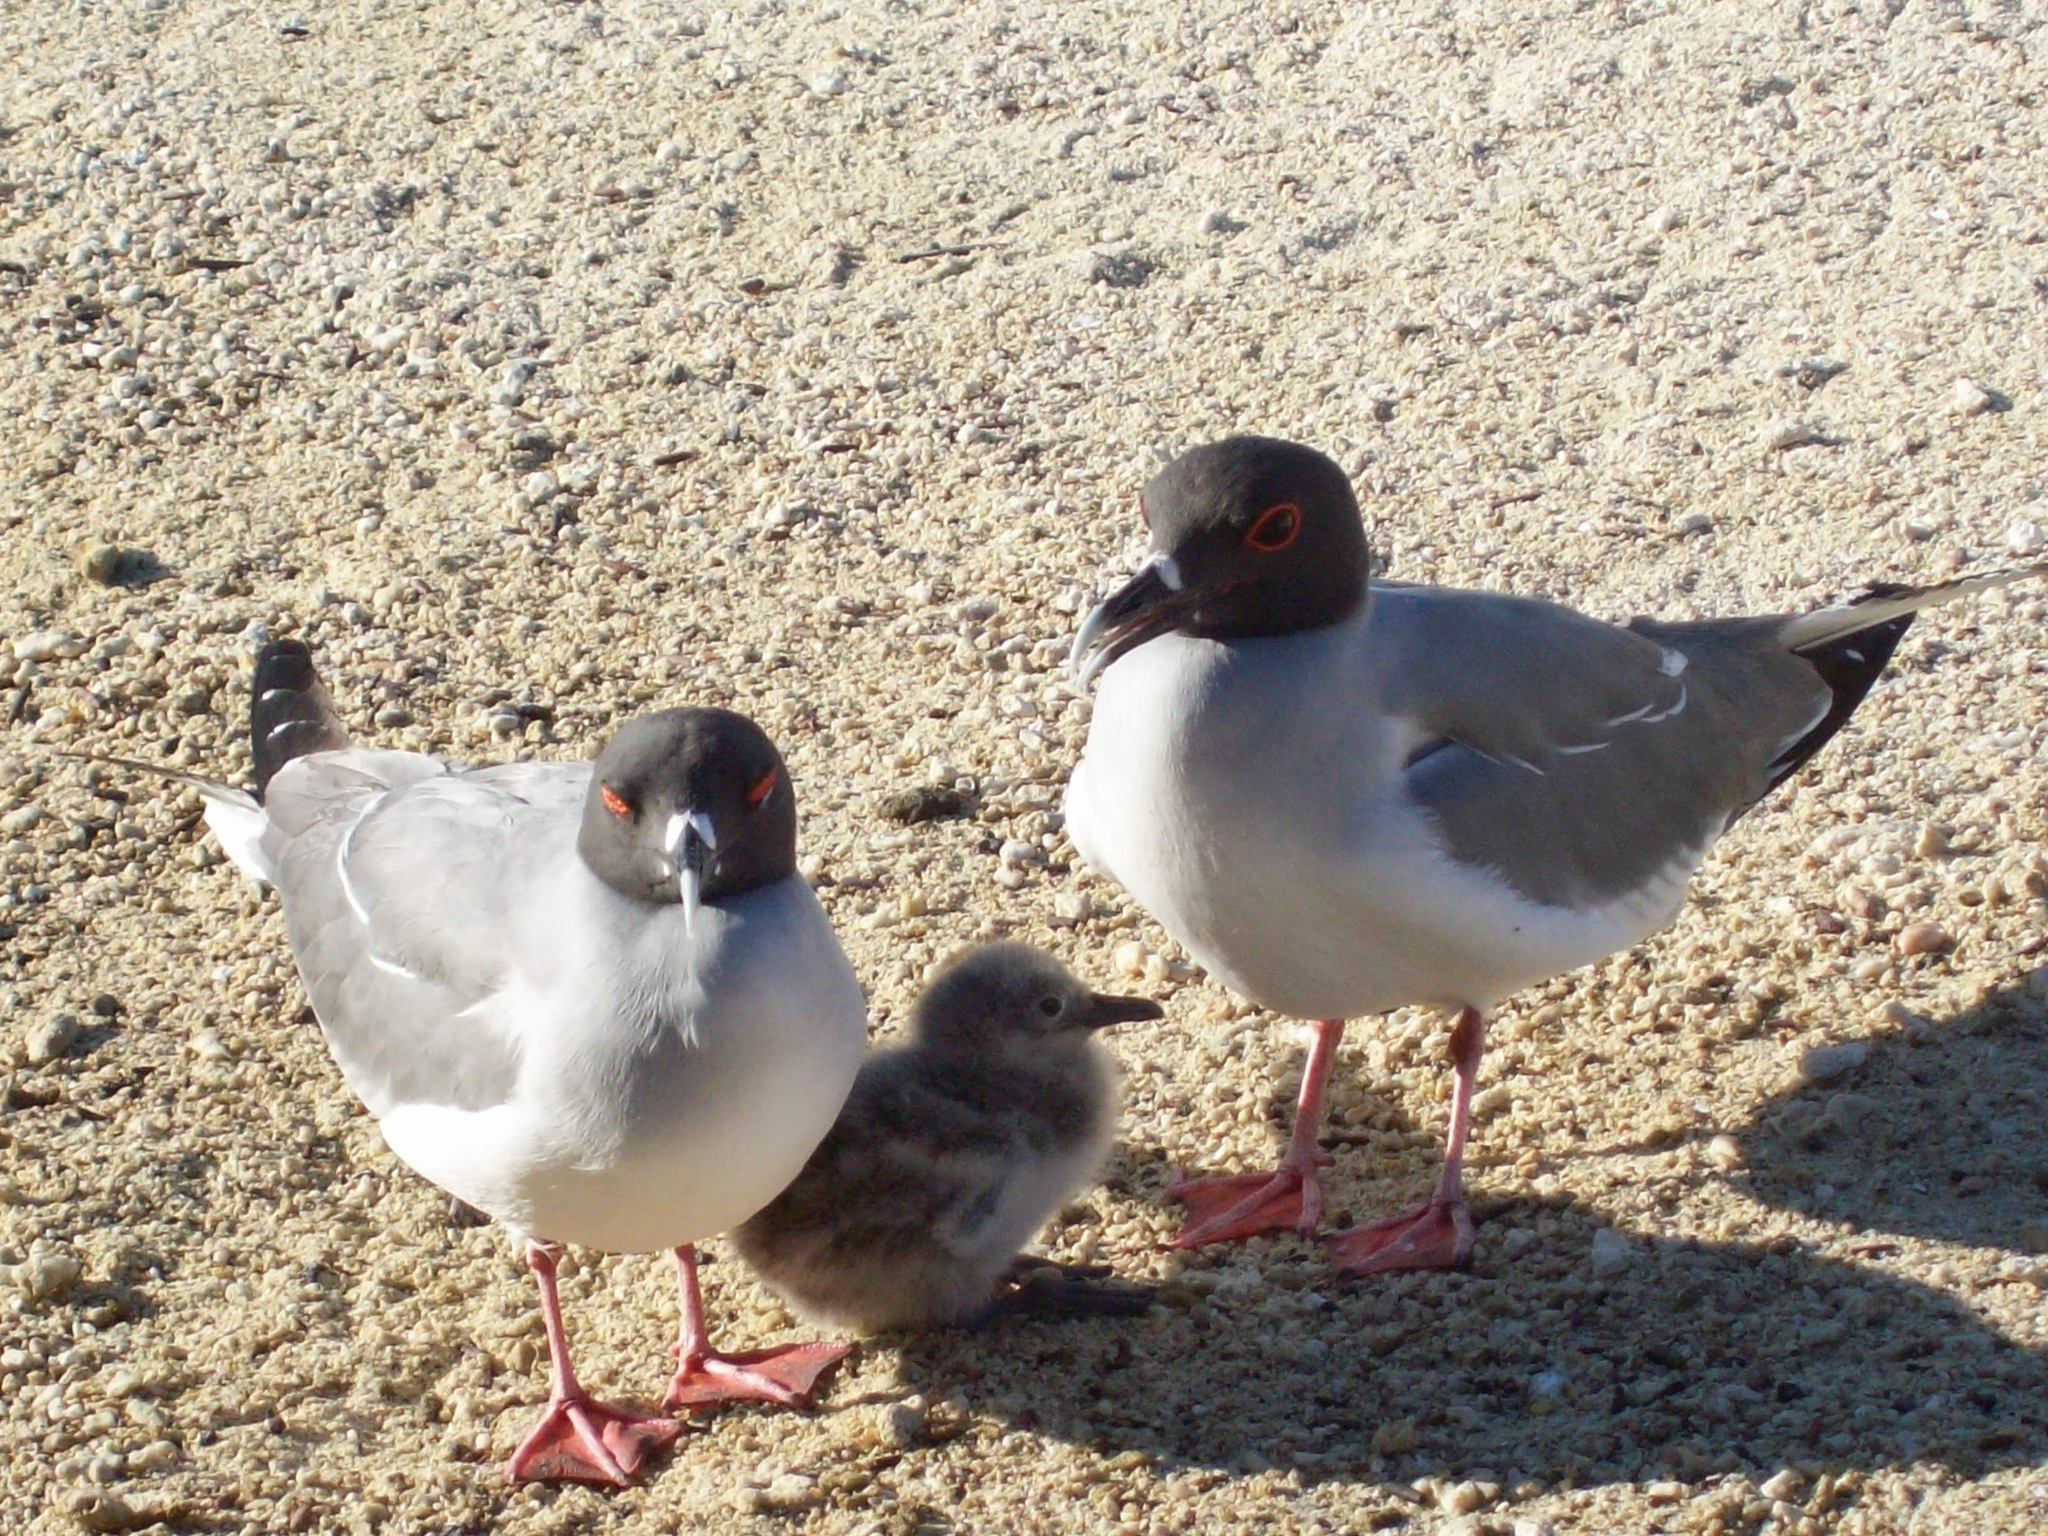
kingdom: Animalia
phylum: Chordata
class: Aves
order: Charadriiformes
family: Laridae
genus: Creagrus
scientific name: Creagrus furcatus
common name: Swallow-tailed gull
